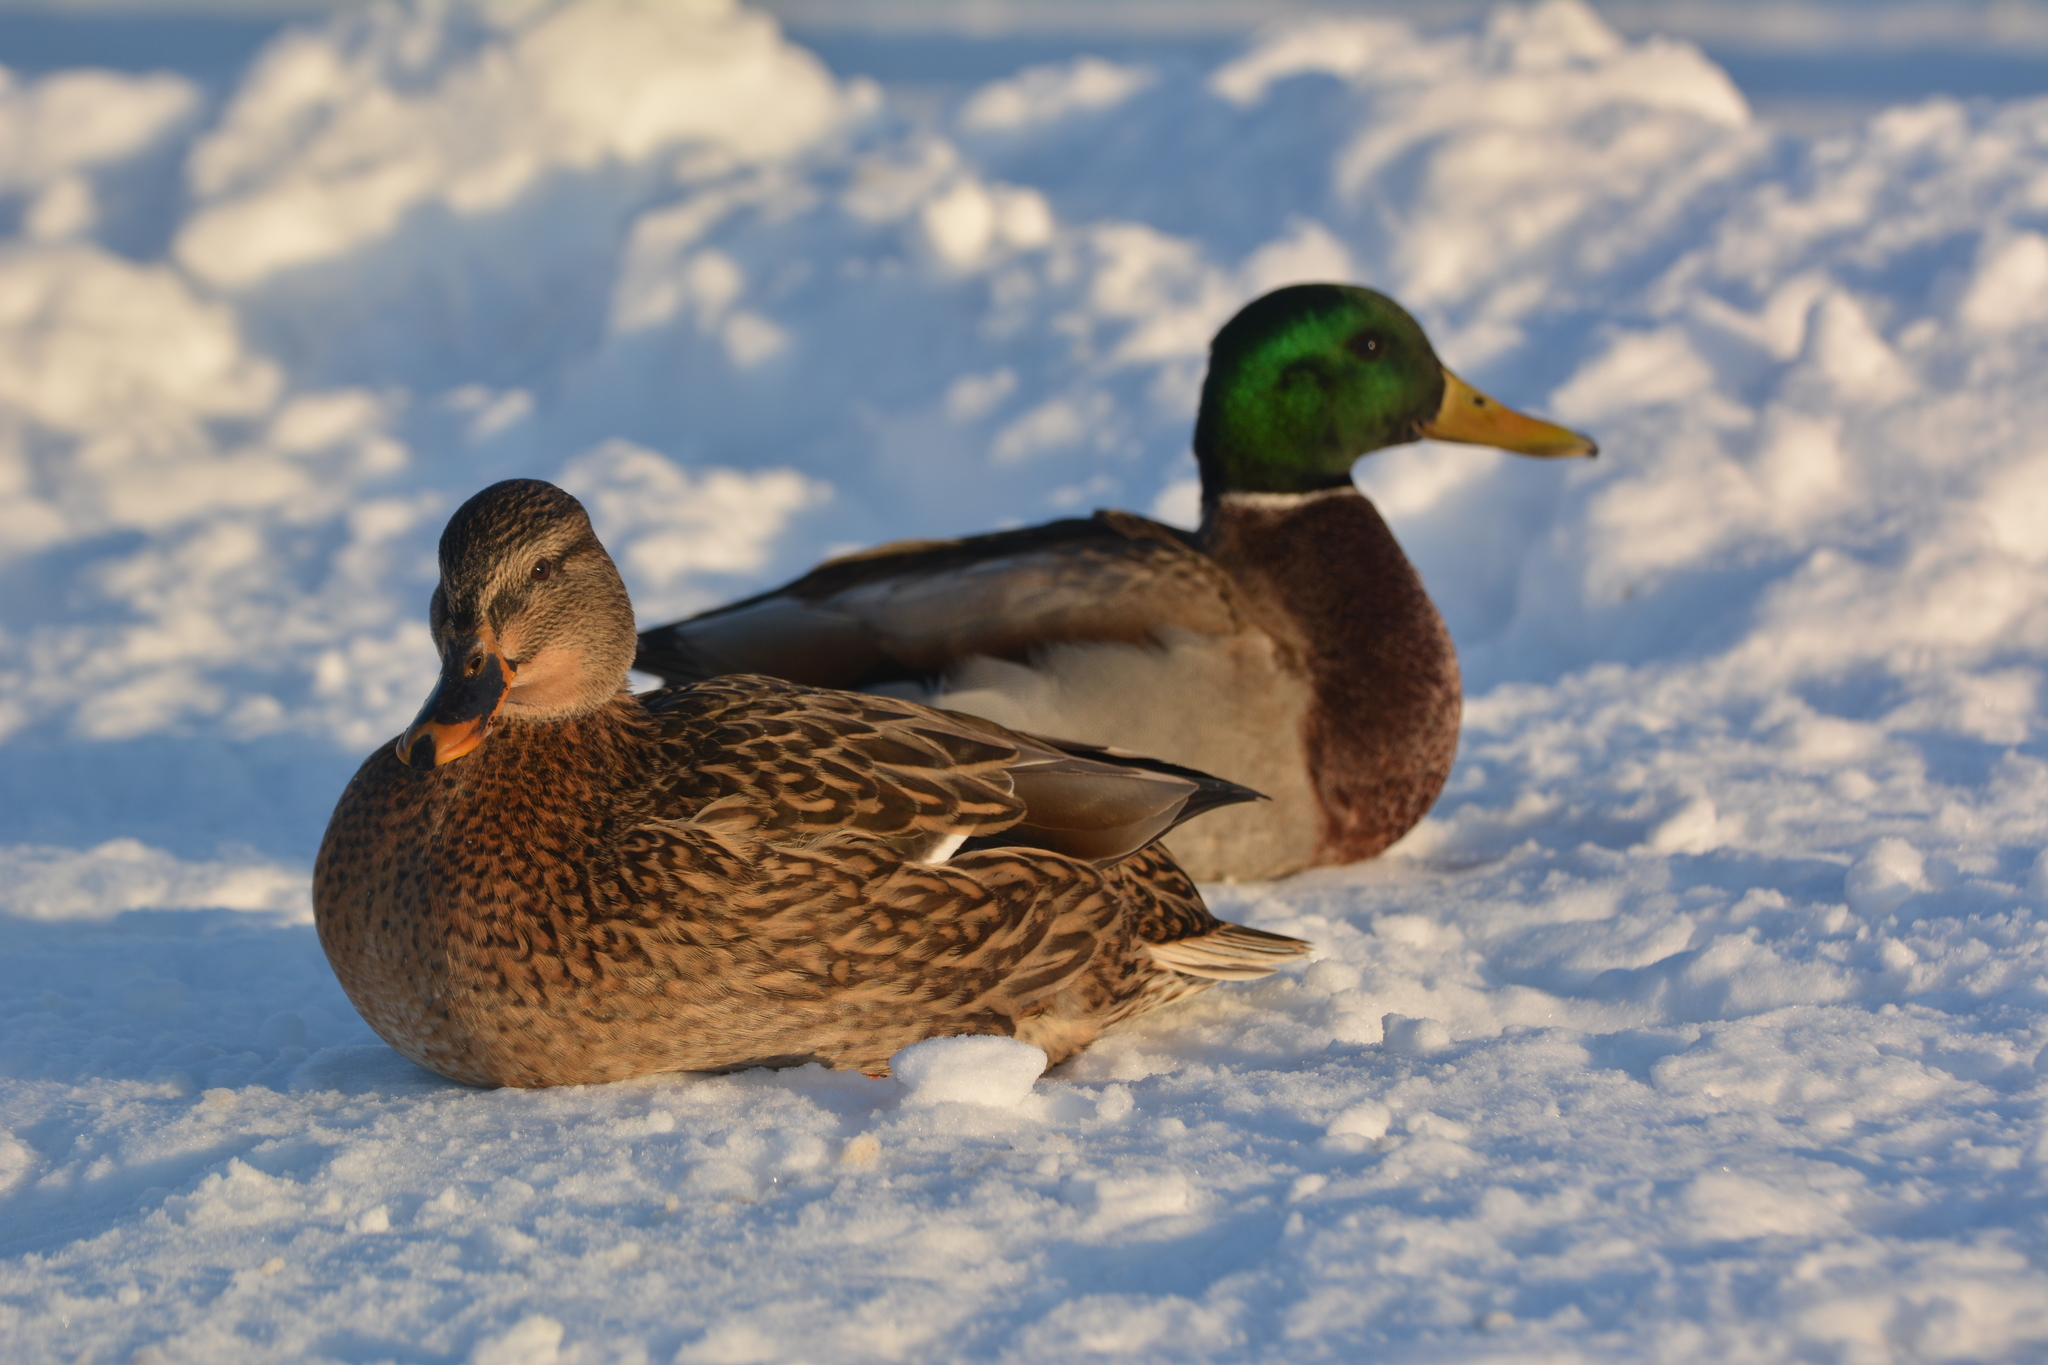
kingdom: Animalia
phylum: Chordata
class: Aves
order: Anseriformes
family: Anatidae
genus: Anas
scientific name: Anas platyrhynchos
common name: Mallard
